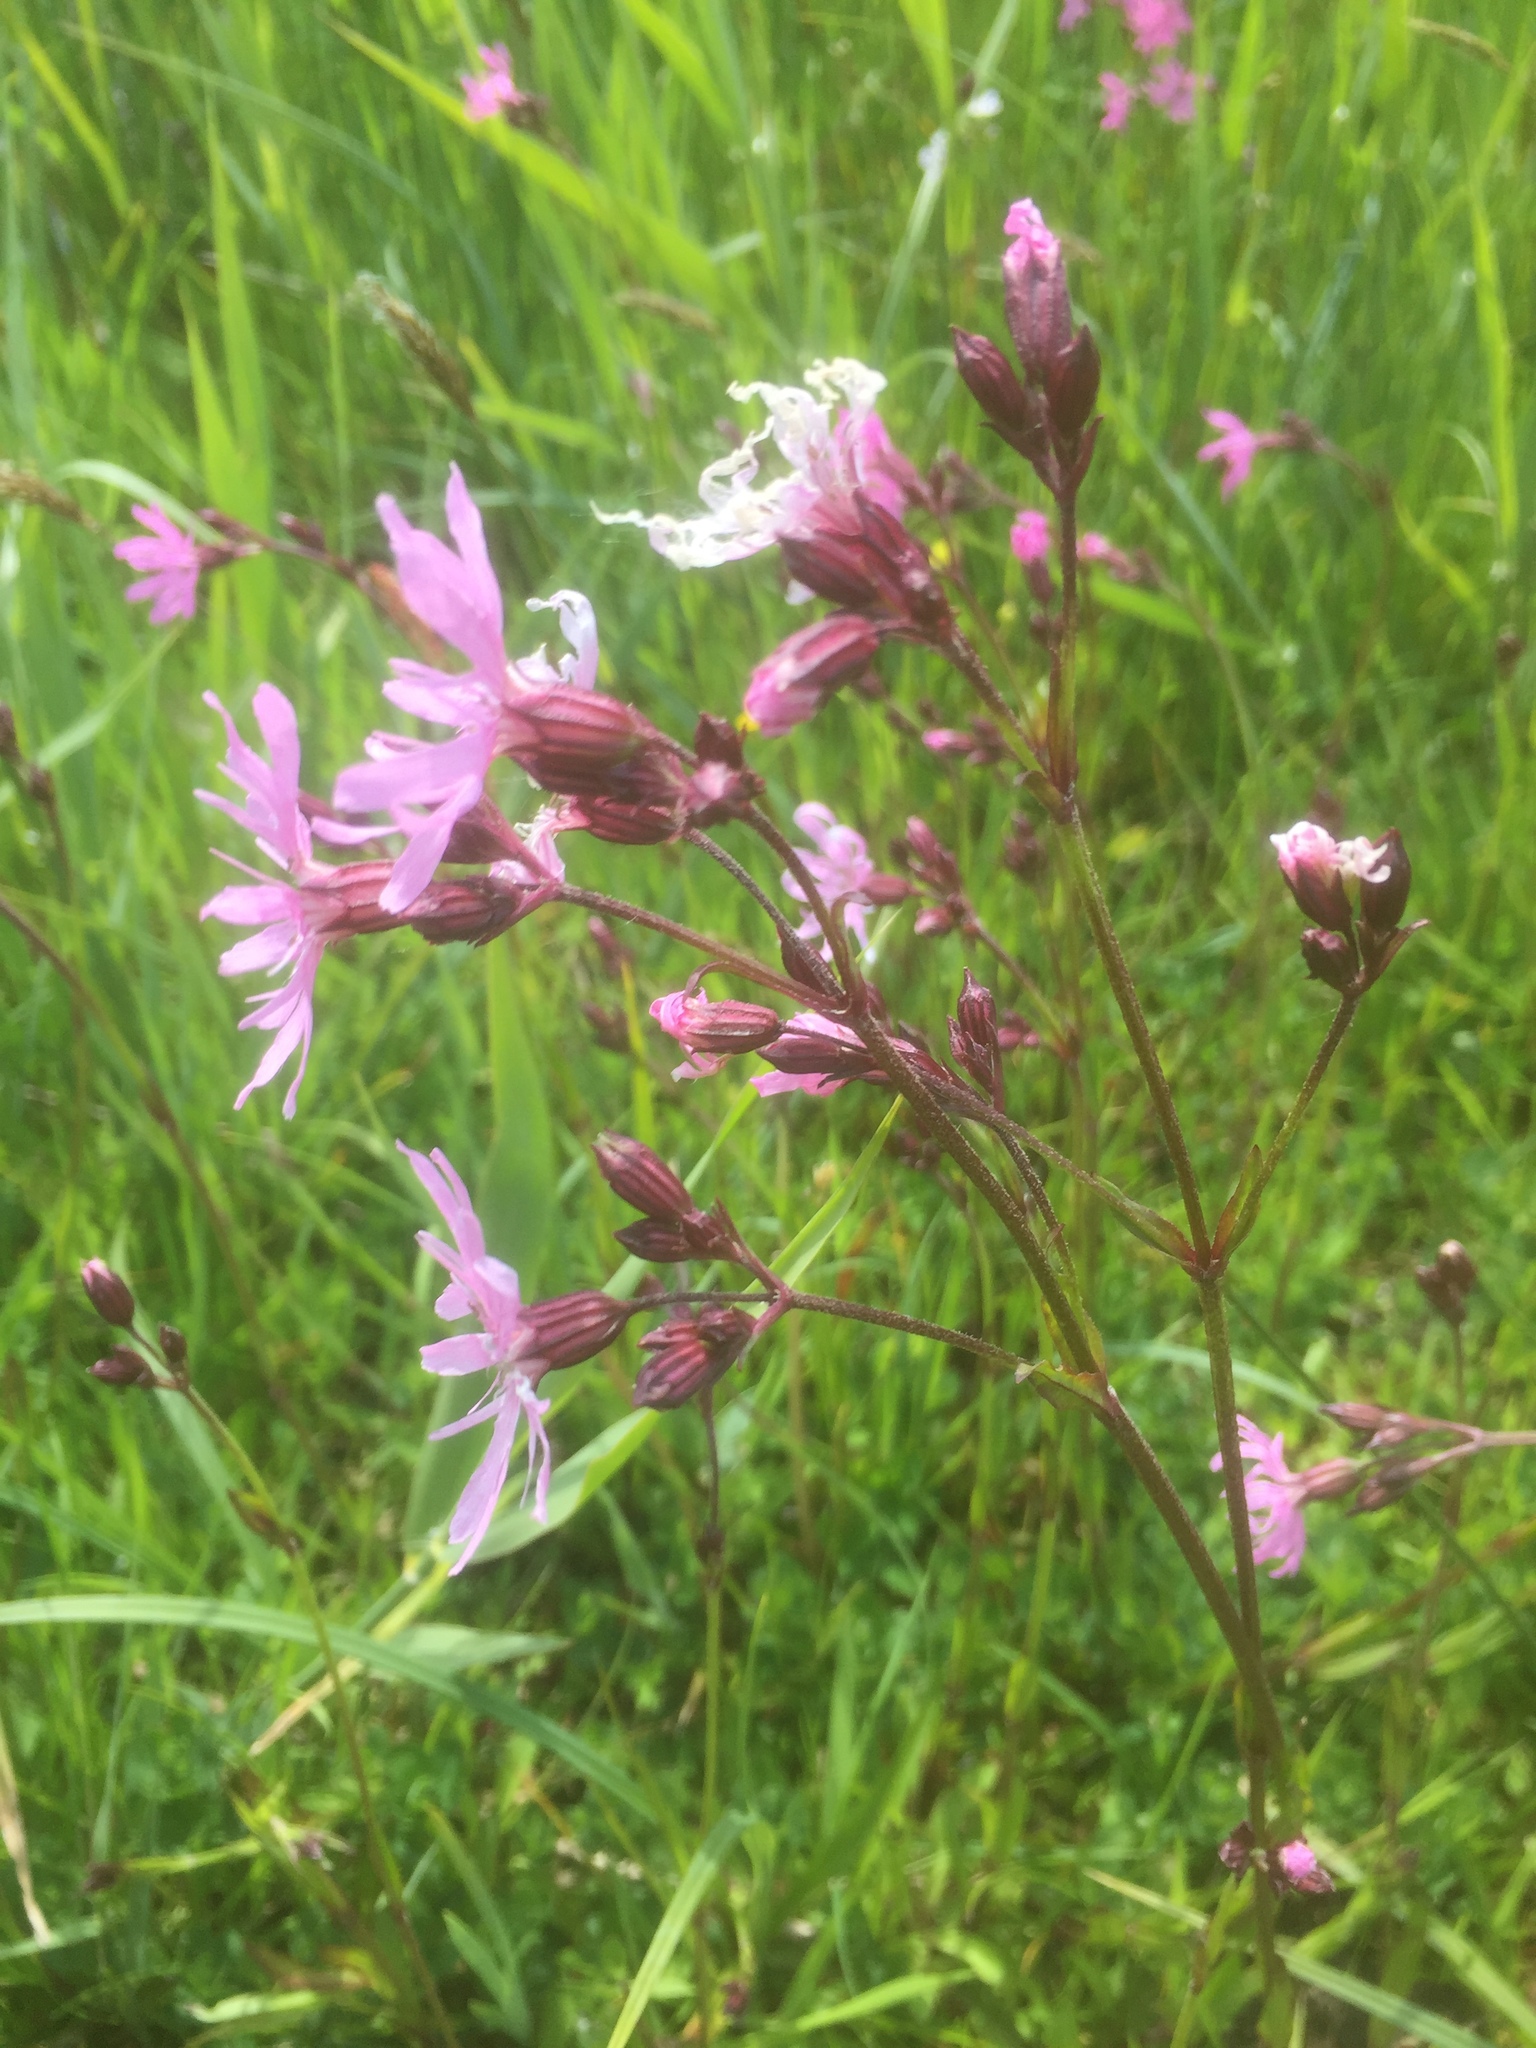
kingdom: Plantae
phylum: Tracheophyta
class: Magnoliopsida
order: Caryophyllales
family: Caryophyllaceae
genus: Silene
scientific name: Silene flos-cuculi
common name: Ragged-robin
